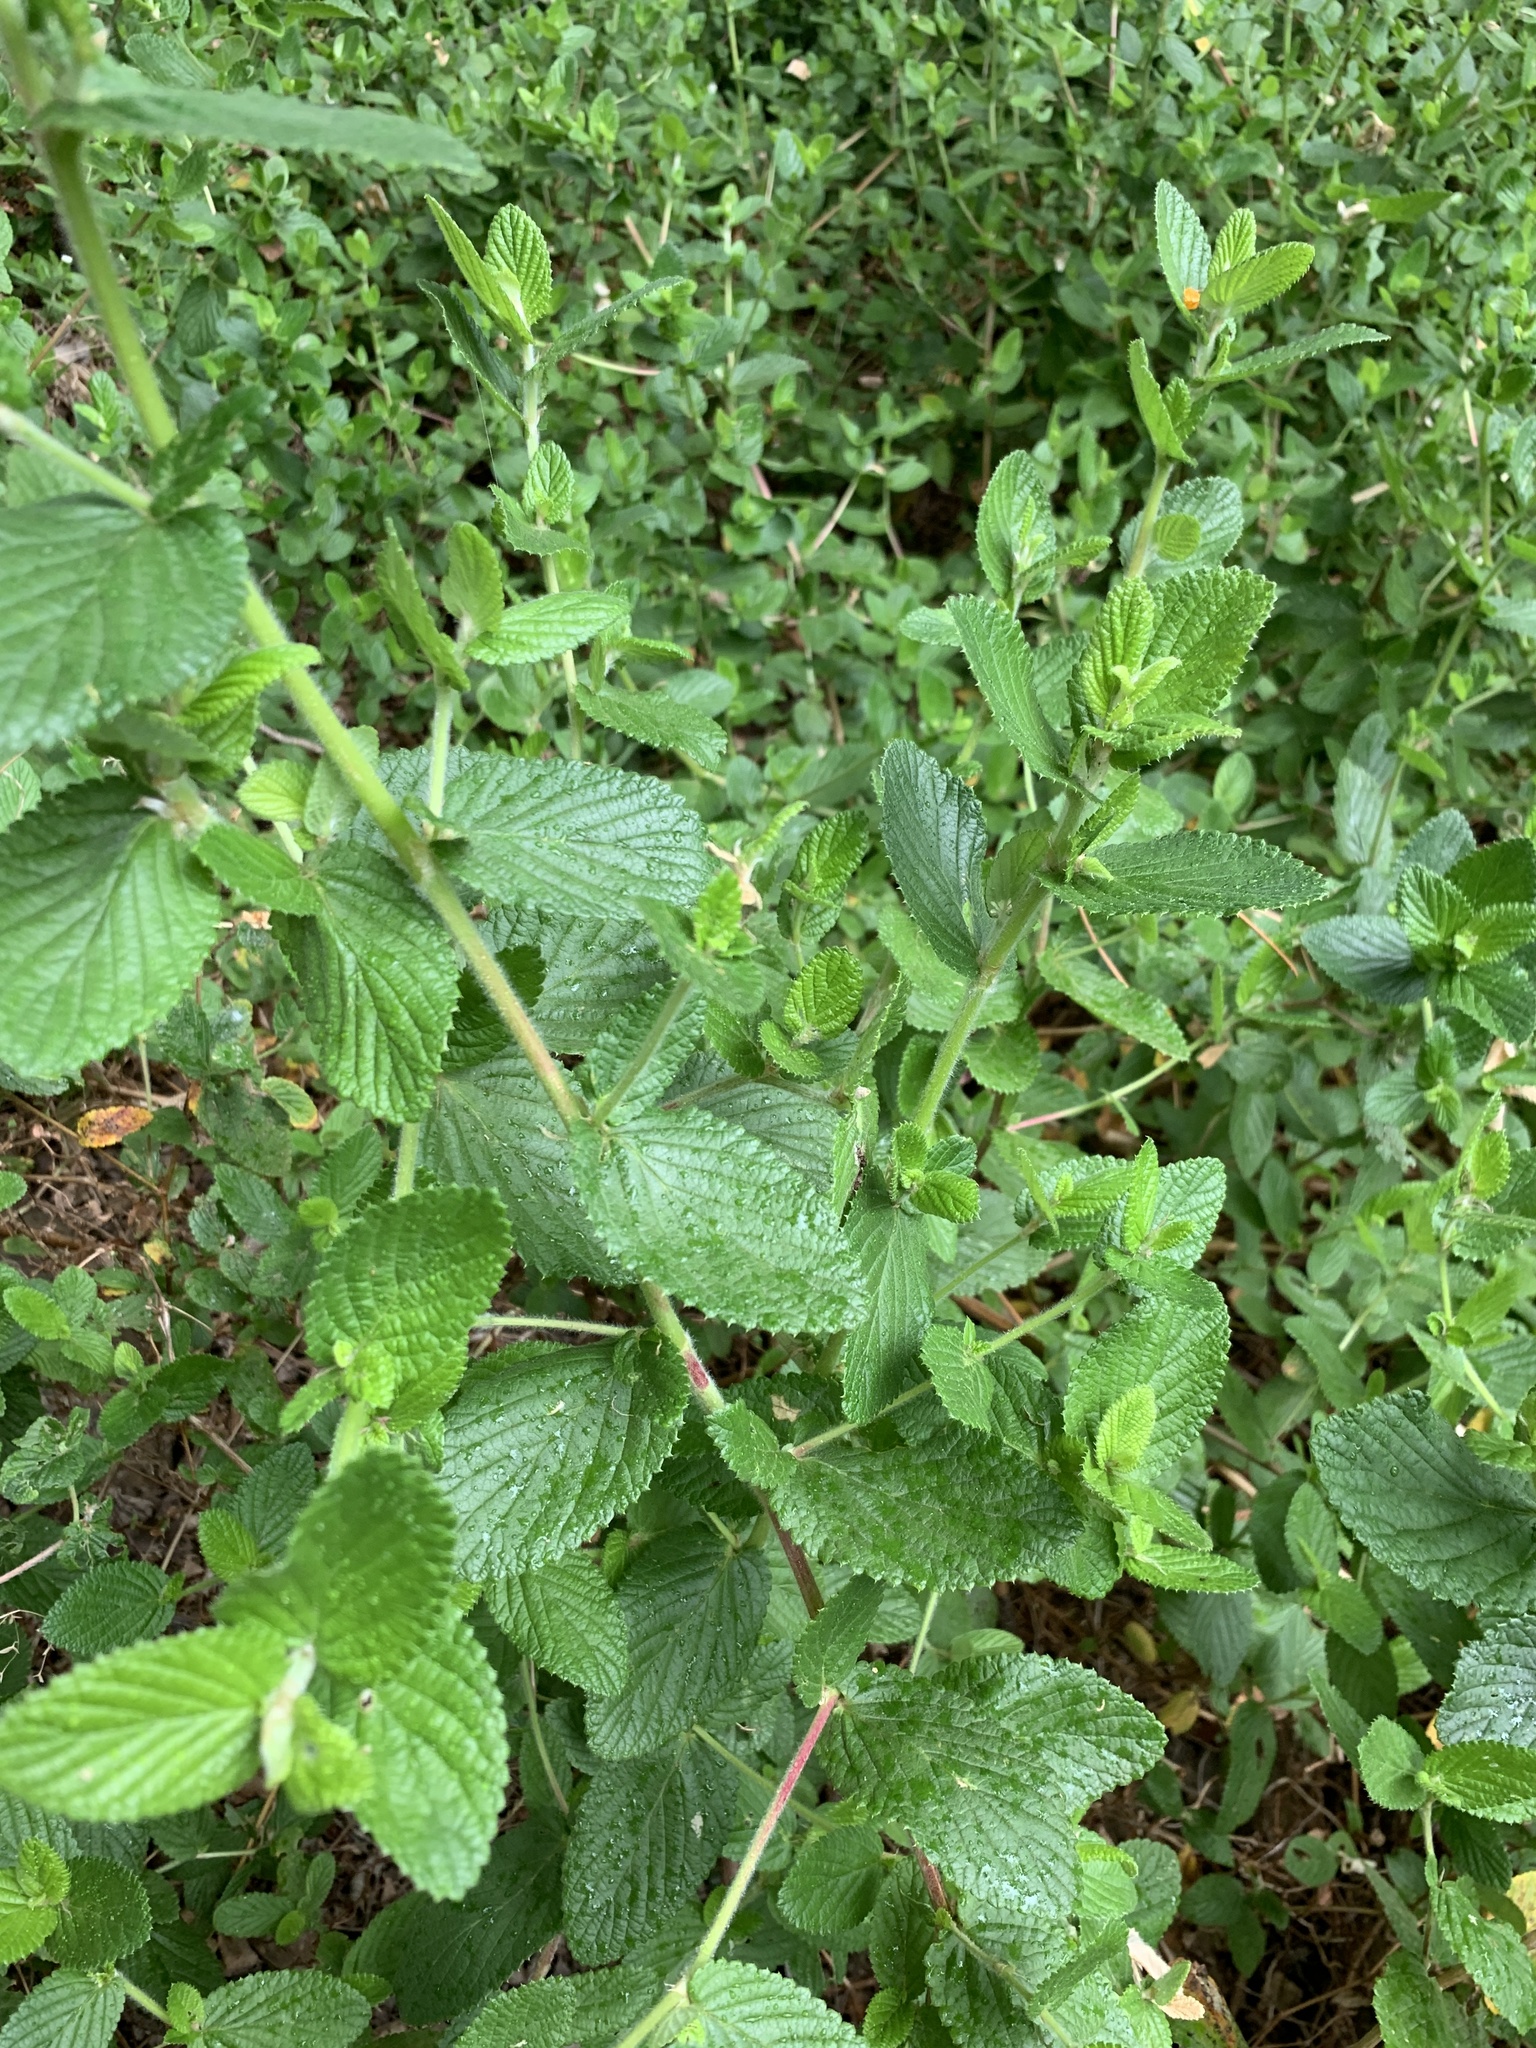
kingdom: Plantae
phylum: Tracheophyta
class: Magnoliopsida
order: Rosales
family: Rosaceae
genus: Cliffortia
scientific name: Cliffortia odorata
